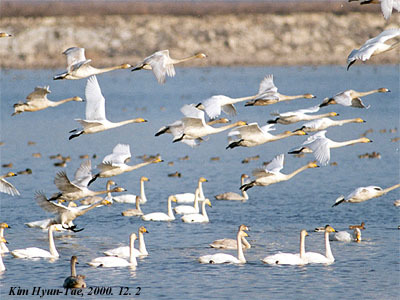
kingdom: Animalia
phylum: Chordata
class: Aves
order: Anseriformes
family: Anatidae
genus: Cygnus
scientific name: Cygnus cygnus
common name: Whooper swan
